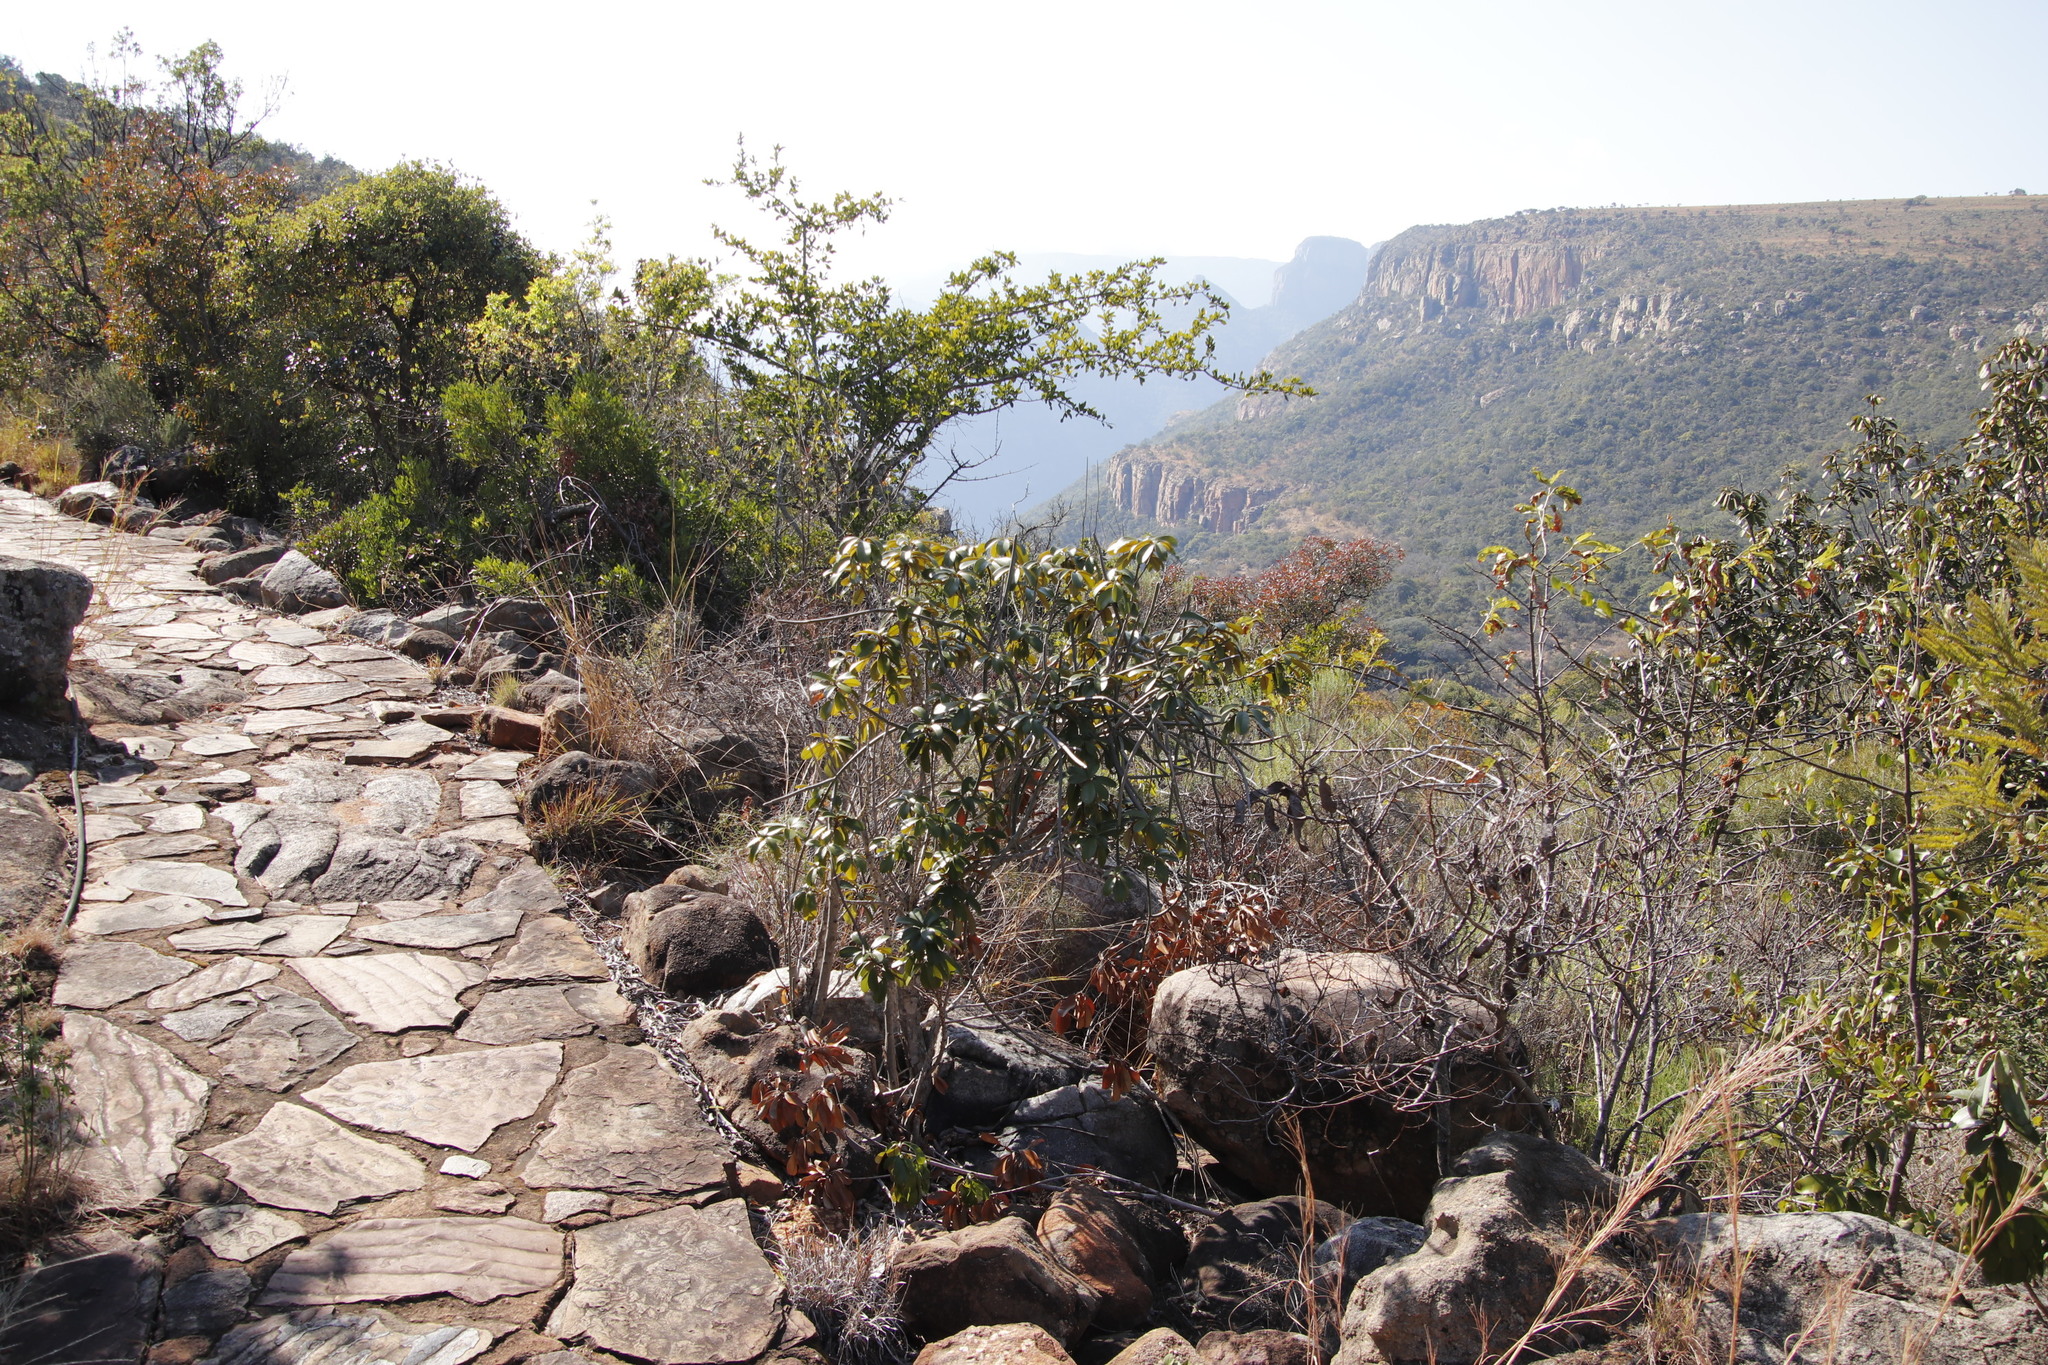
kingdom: Plantae
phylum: Tracheophyta
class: Magnoliopsida
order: Ericales
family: Sapotaceae
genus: Englerophytum
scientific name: Englerophytum magalismontanum
